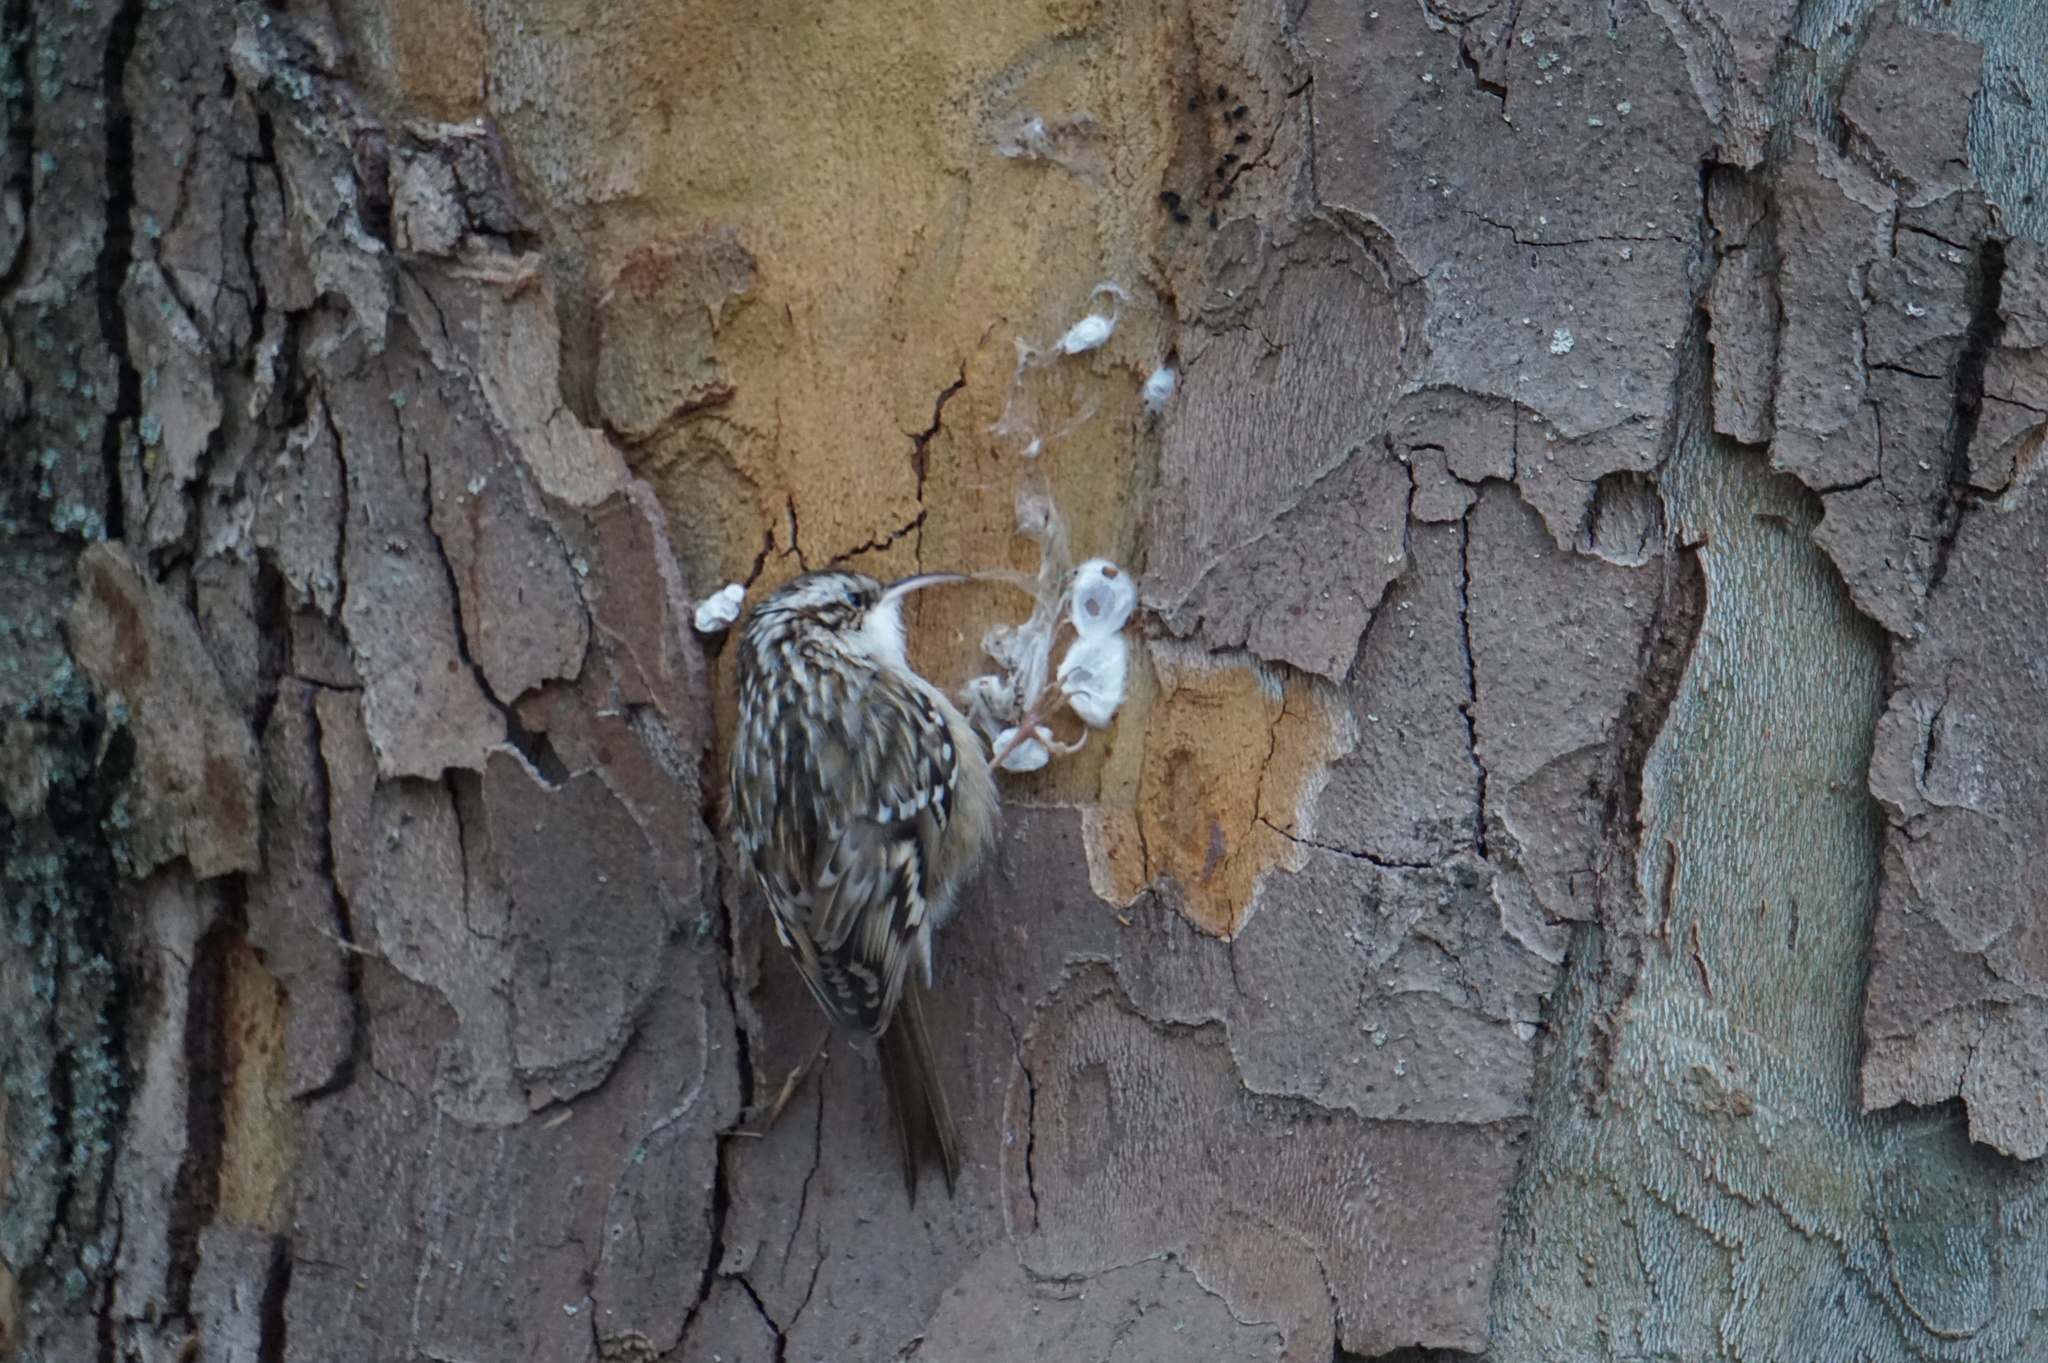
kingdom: Animalia
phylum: Chordata
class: Aves
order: Passeriformes
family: Certhiidae
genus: Certhia
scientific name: Certhia brachydactyla
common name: Short-toed treecreeper
